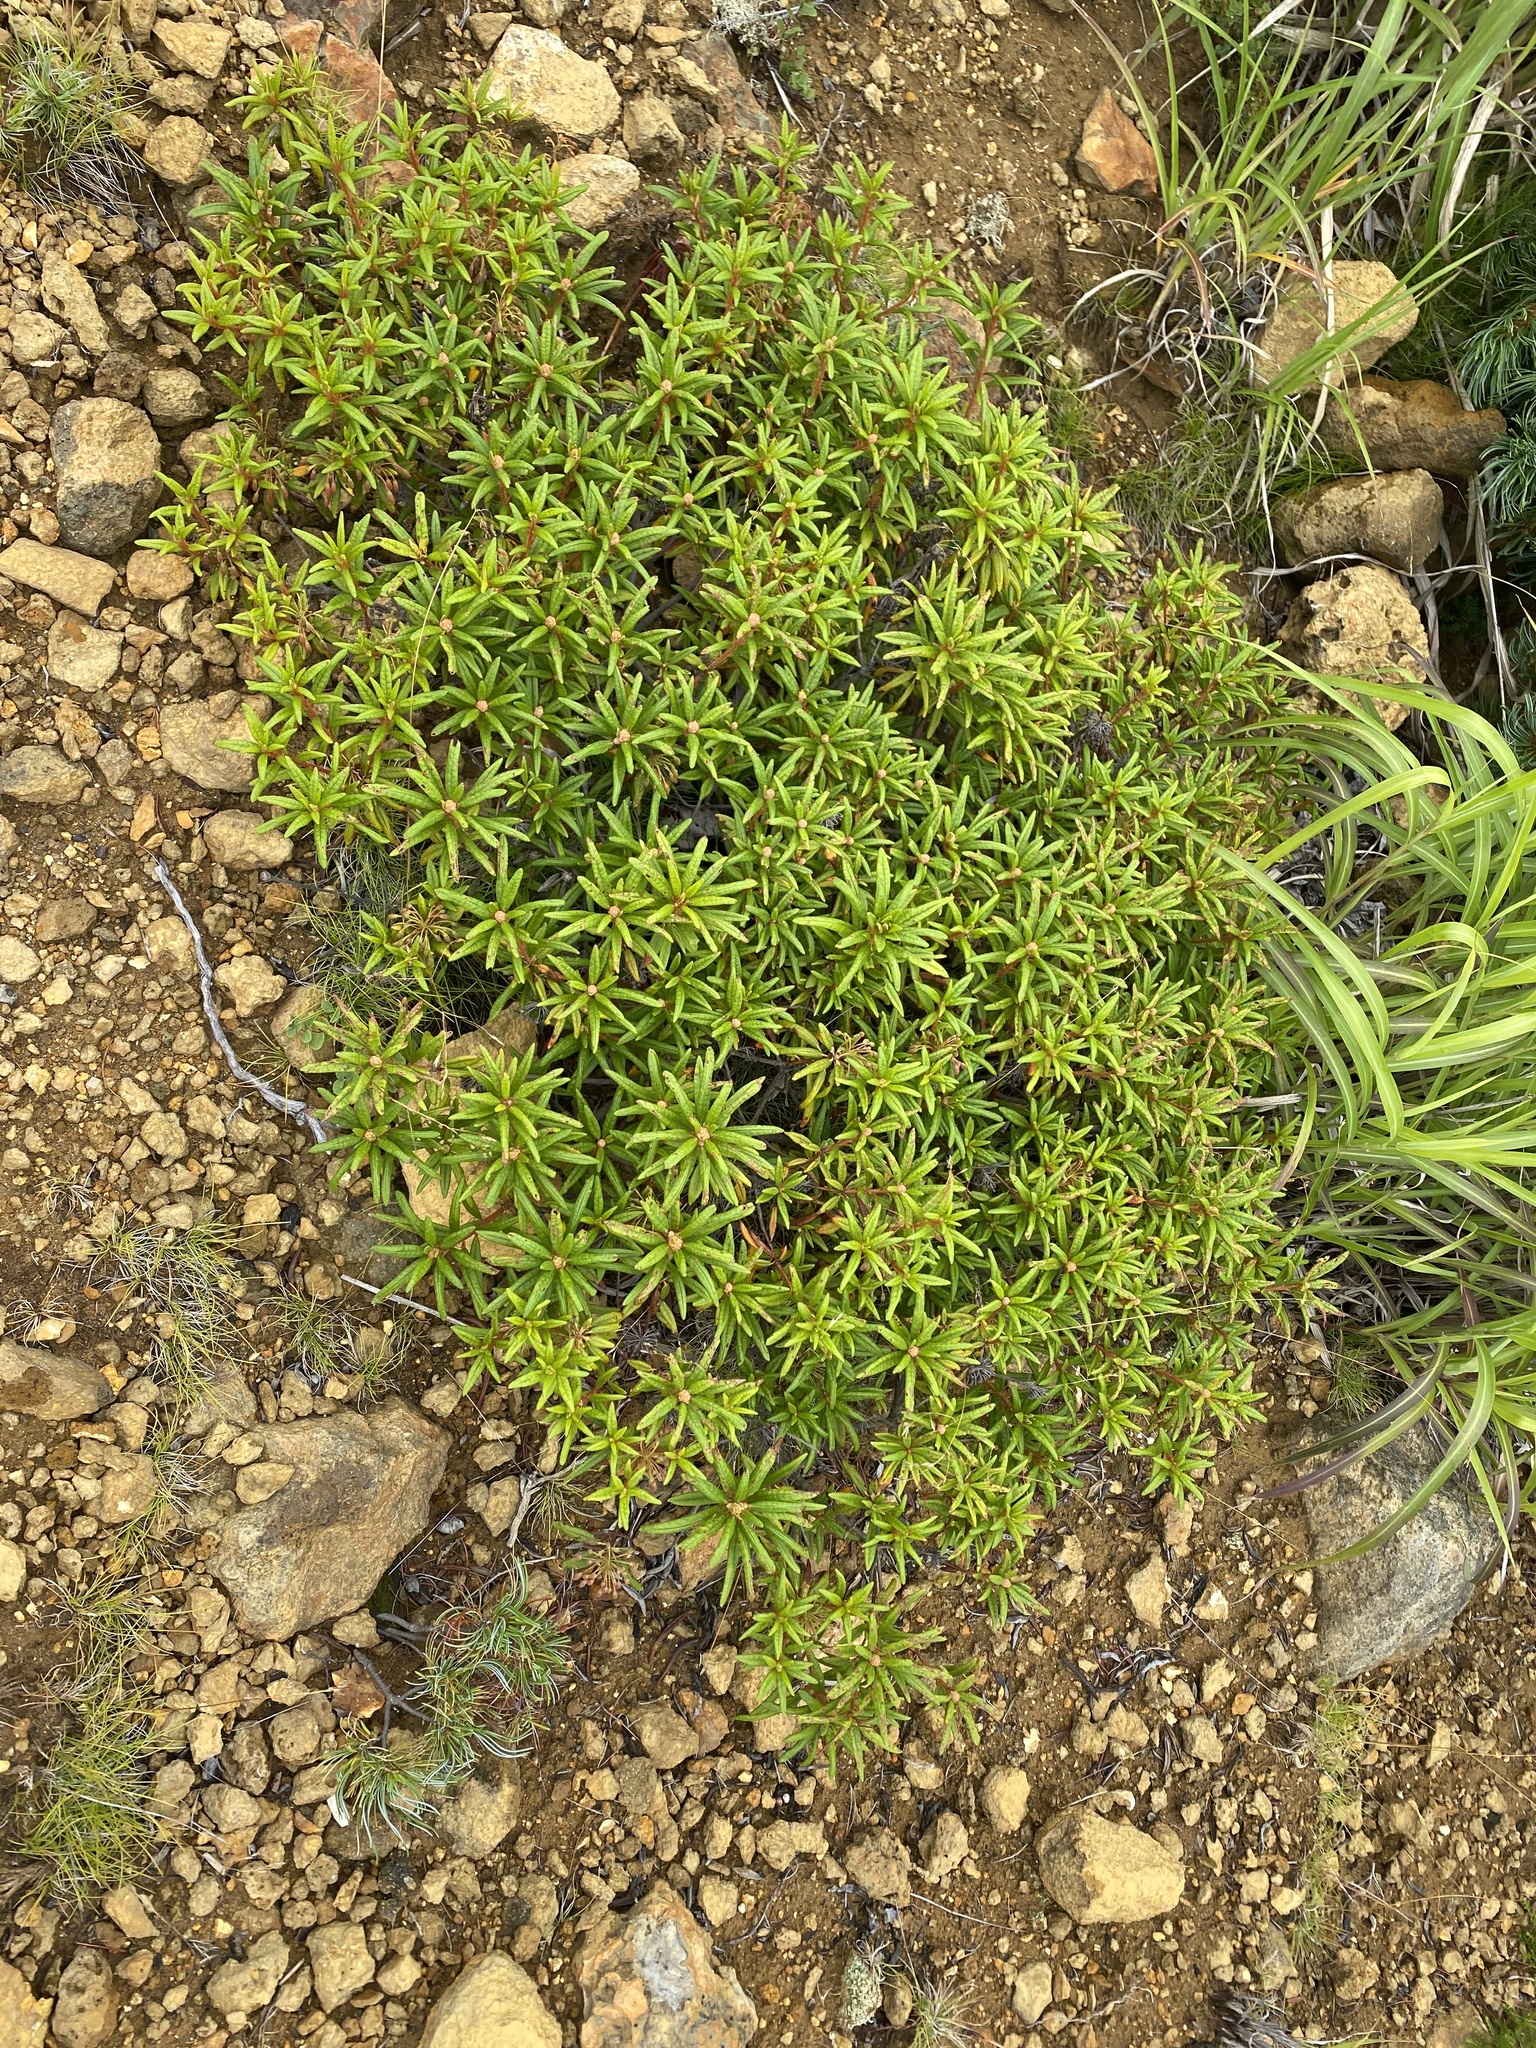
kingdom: Plantae
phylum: Tracheophyta
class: Magnoliopsida
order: Ericales
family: Ericaceae
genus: Rhododendron
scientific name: Rhododendron tomentosum
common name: Marsh labrador tea
